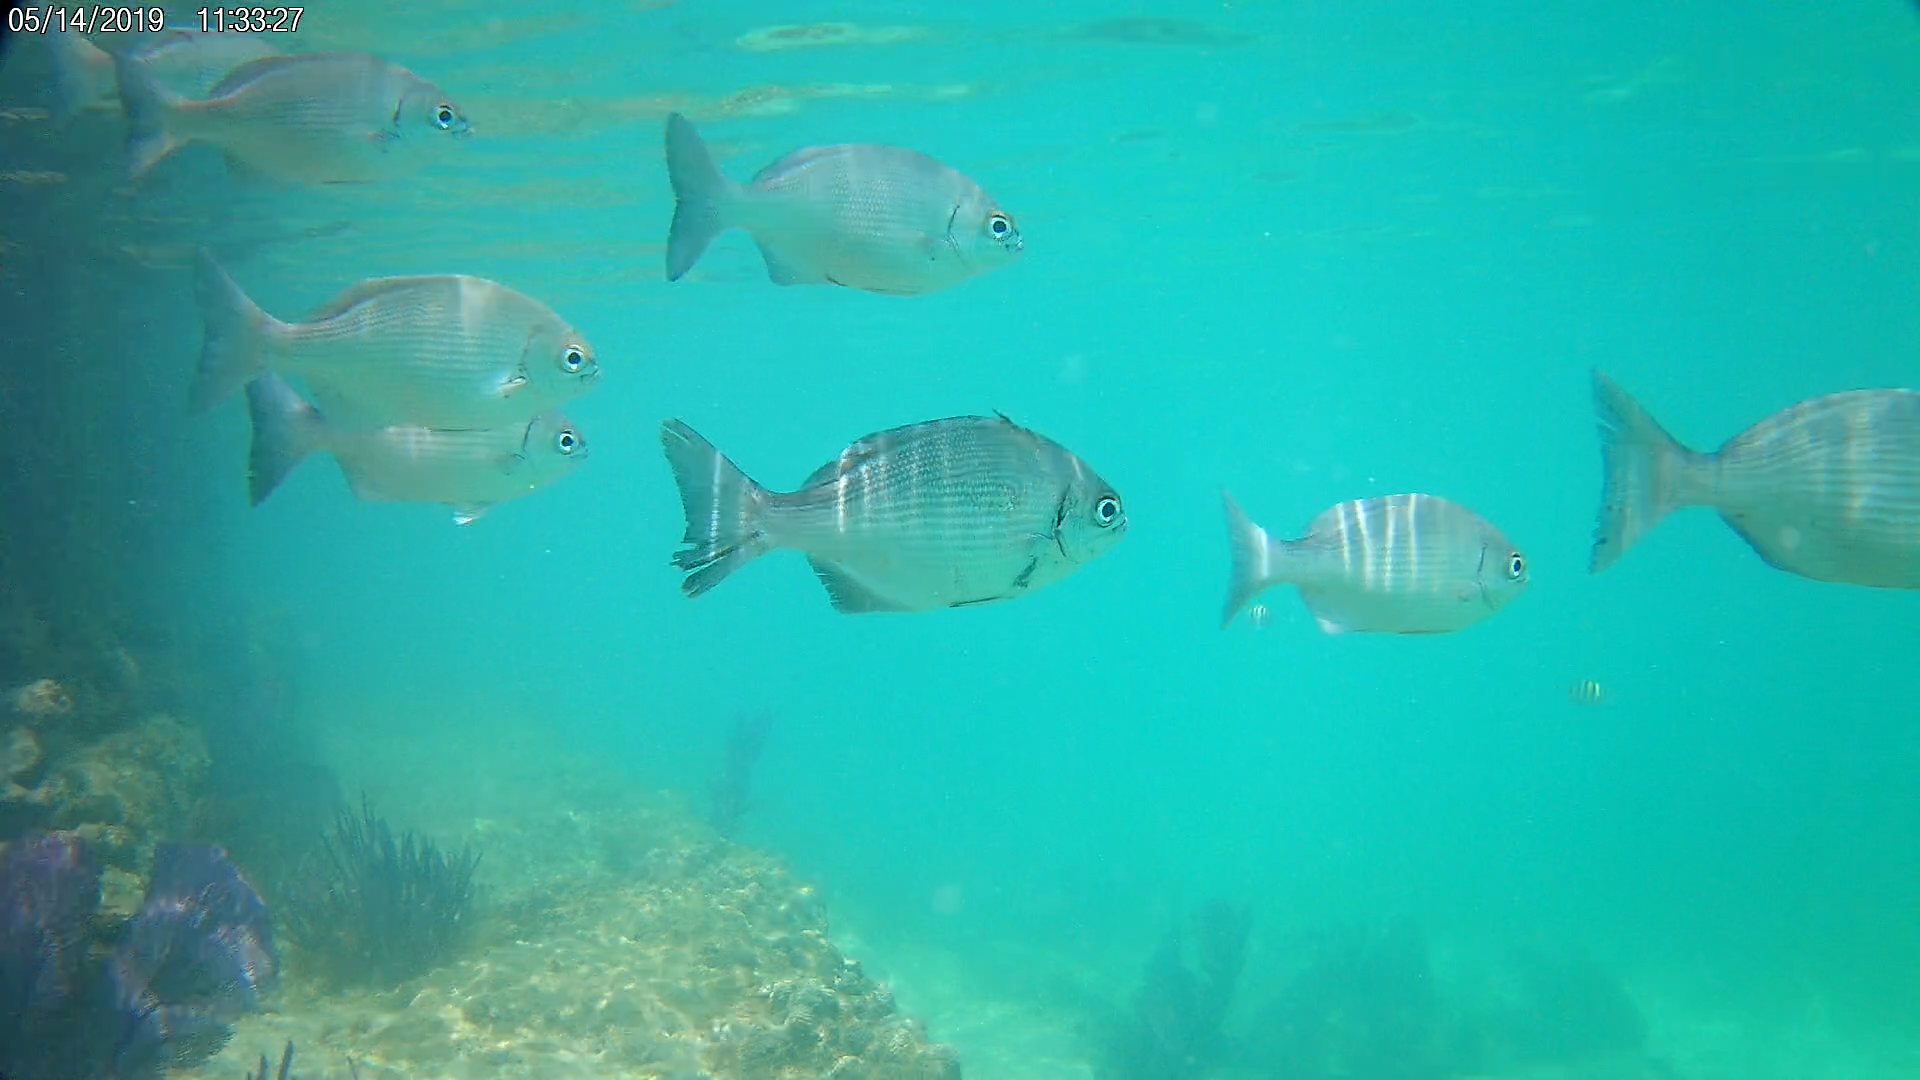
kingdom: Animalia
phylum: Chordata
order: Perciformes
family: Kyphosidae
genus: Kyphosus
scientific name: Kyphosus sectatrix
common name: Bermuda chub
